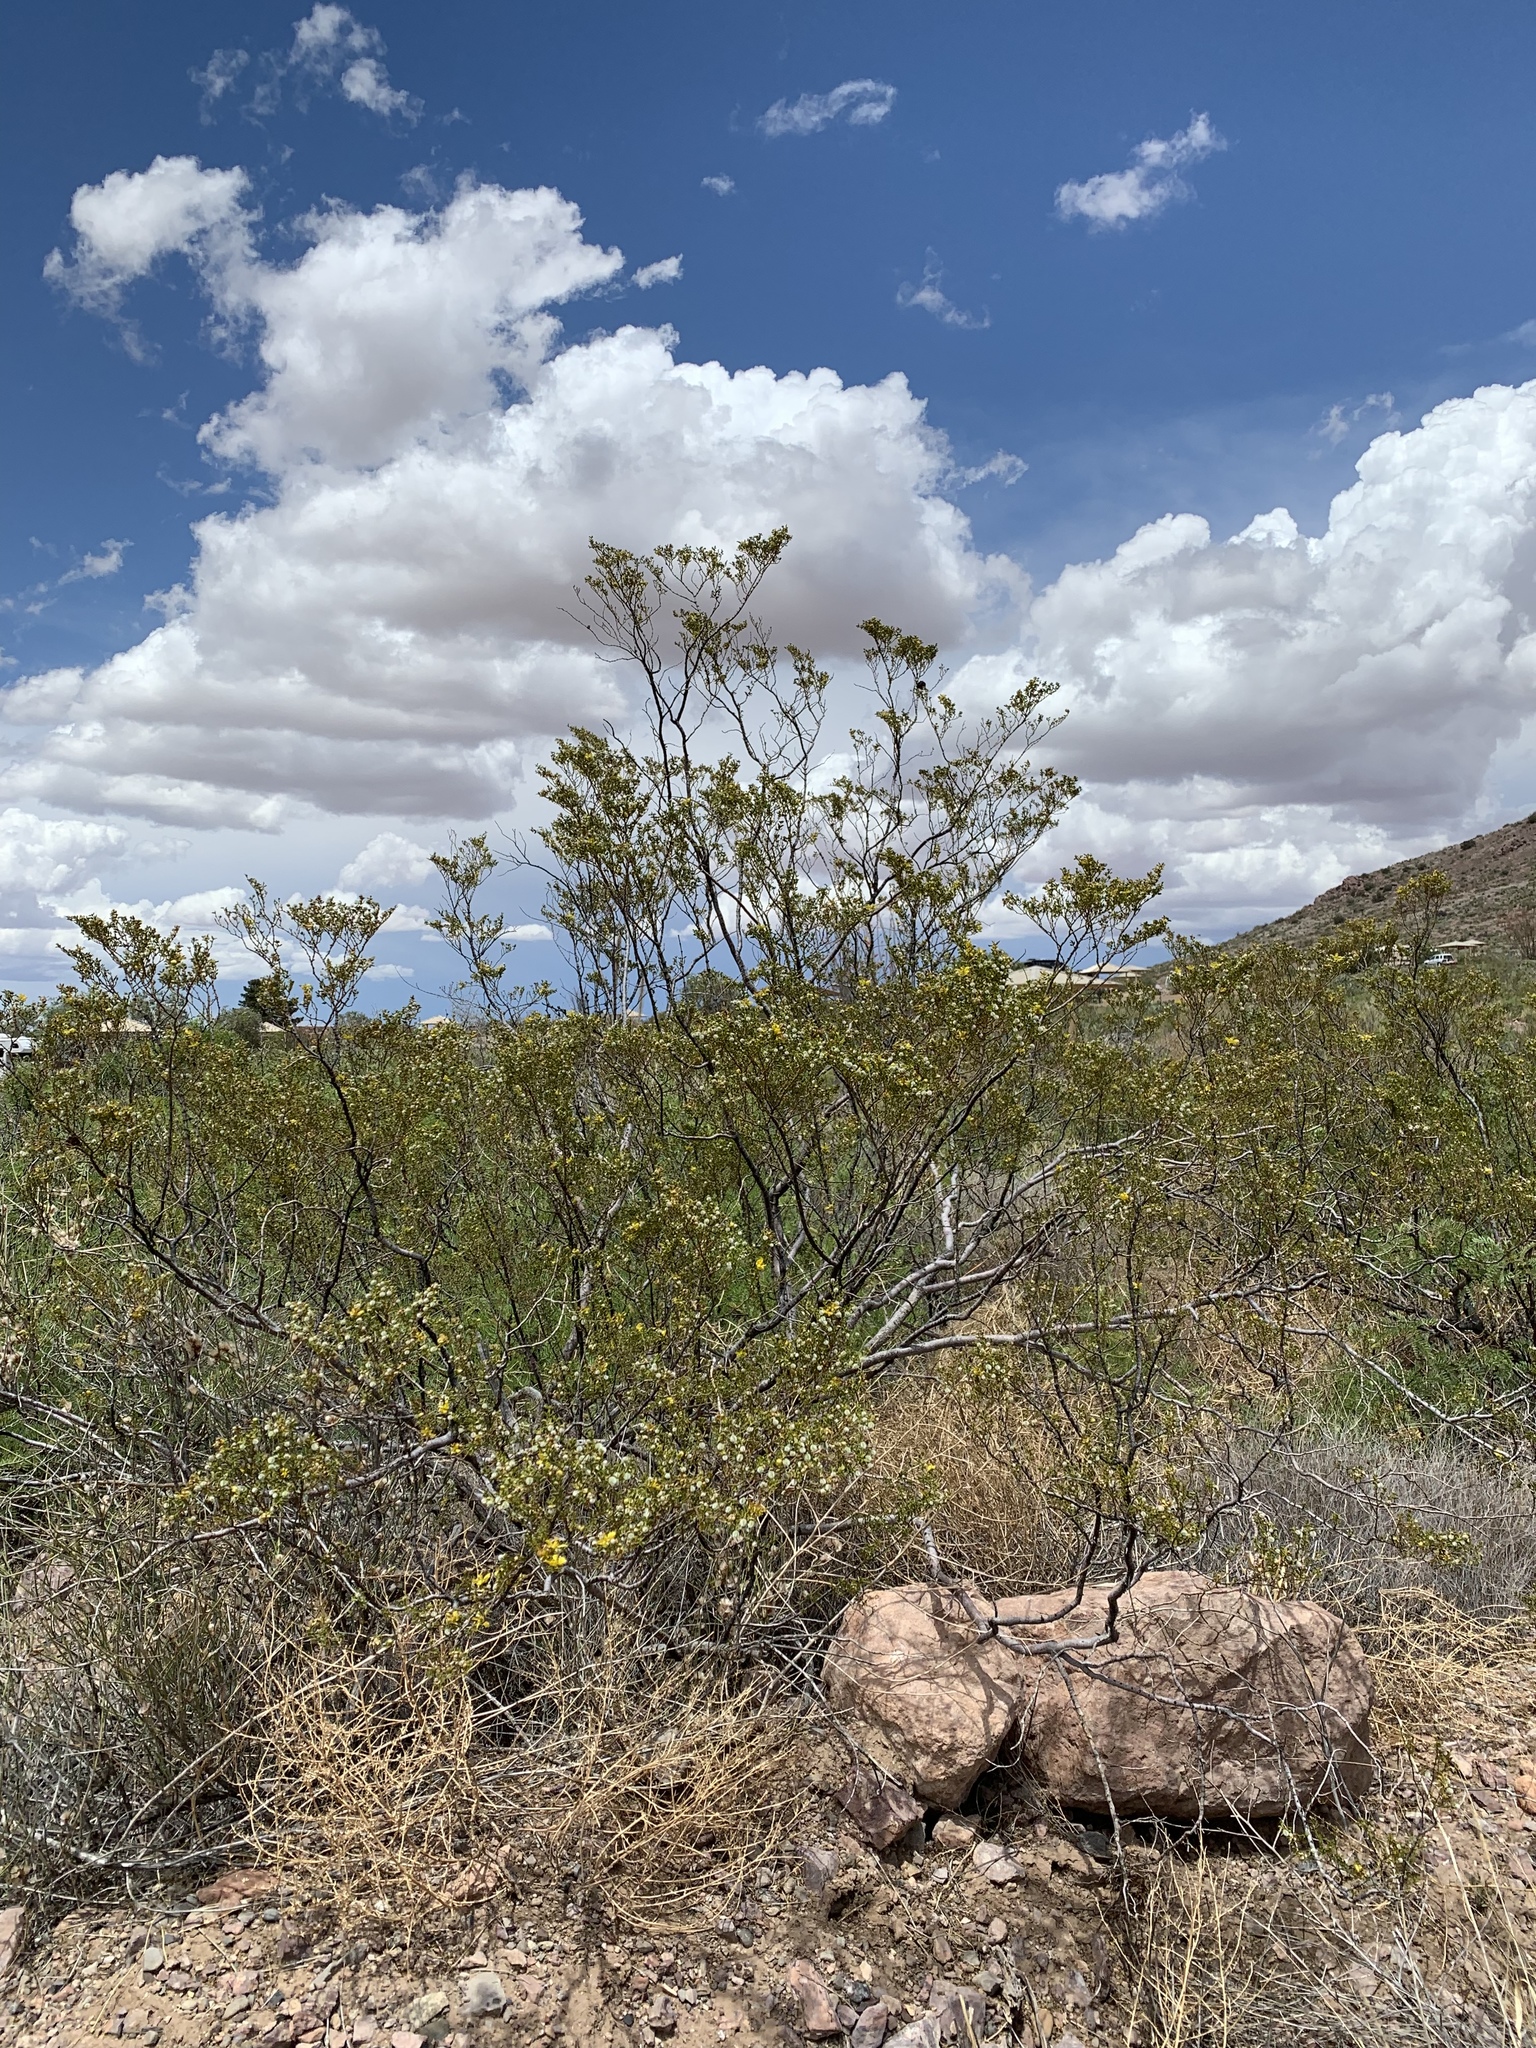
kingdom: Plantae
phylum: Tracheophyta
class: Magnoliopsida
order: Zygophyllales
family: Zygophyllaceae
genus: Larrea
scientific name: Larrea tridentata
